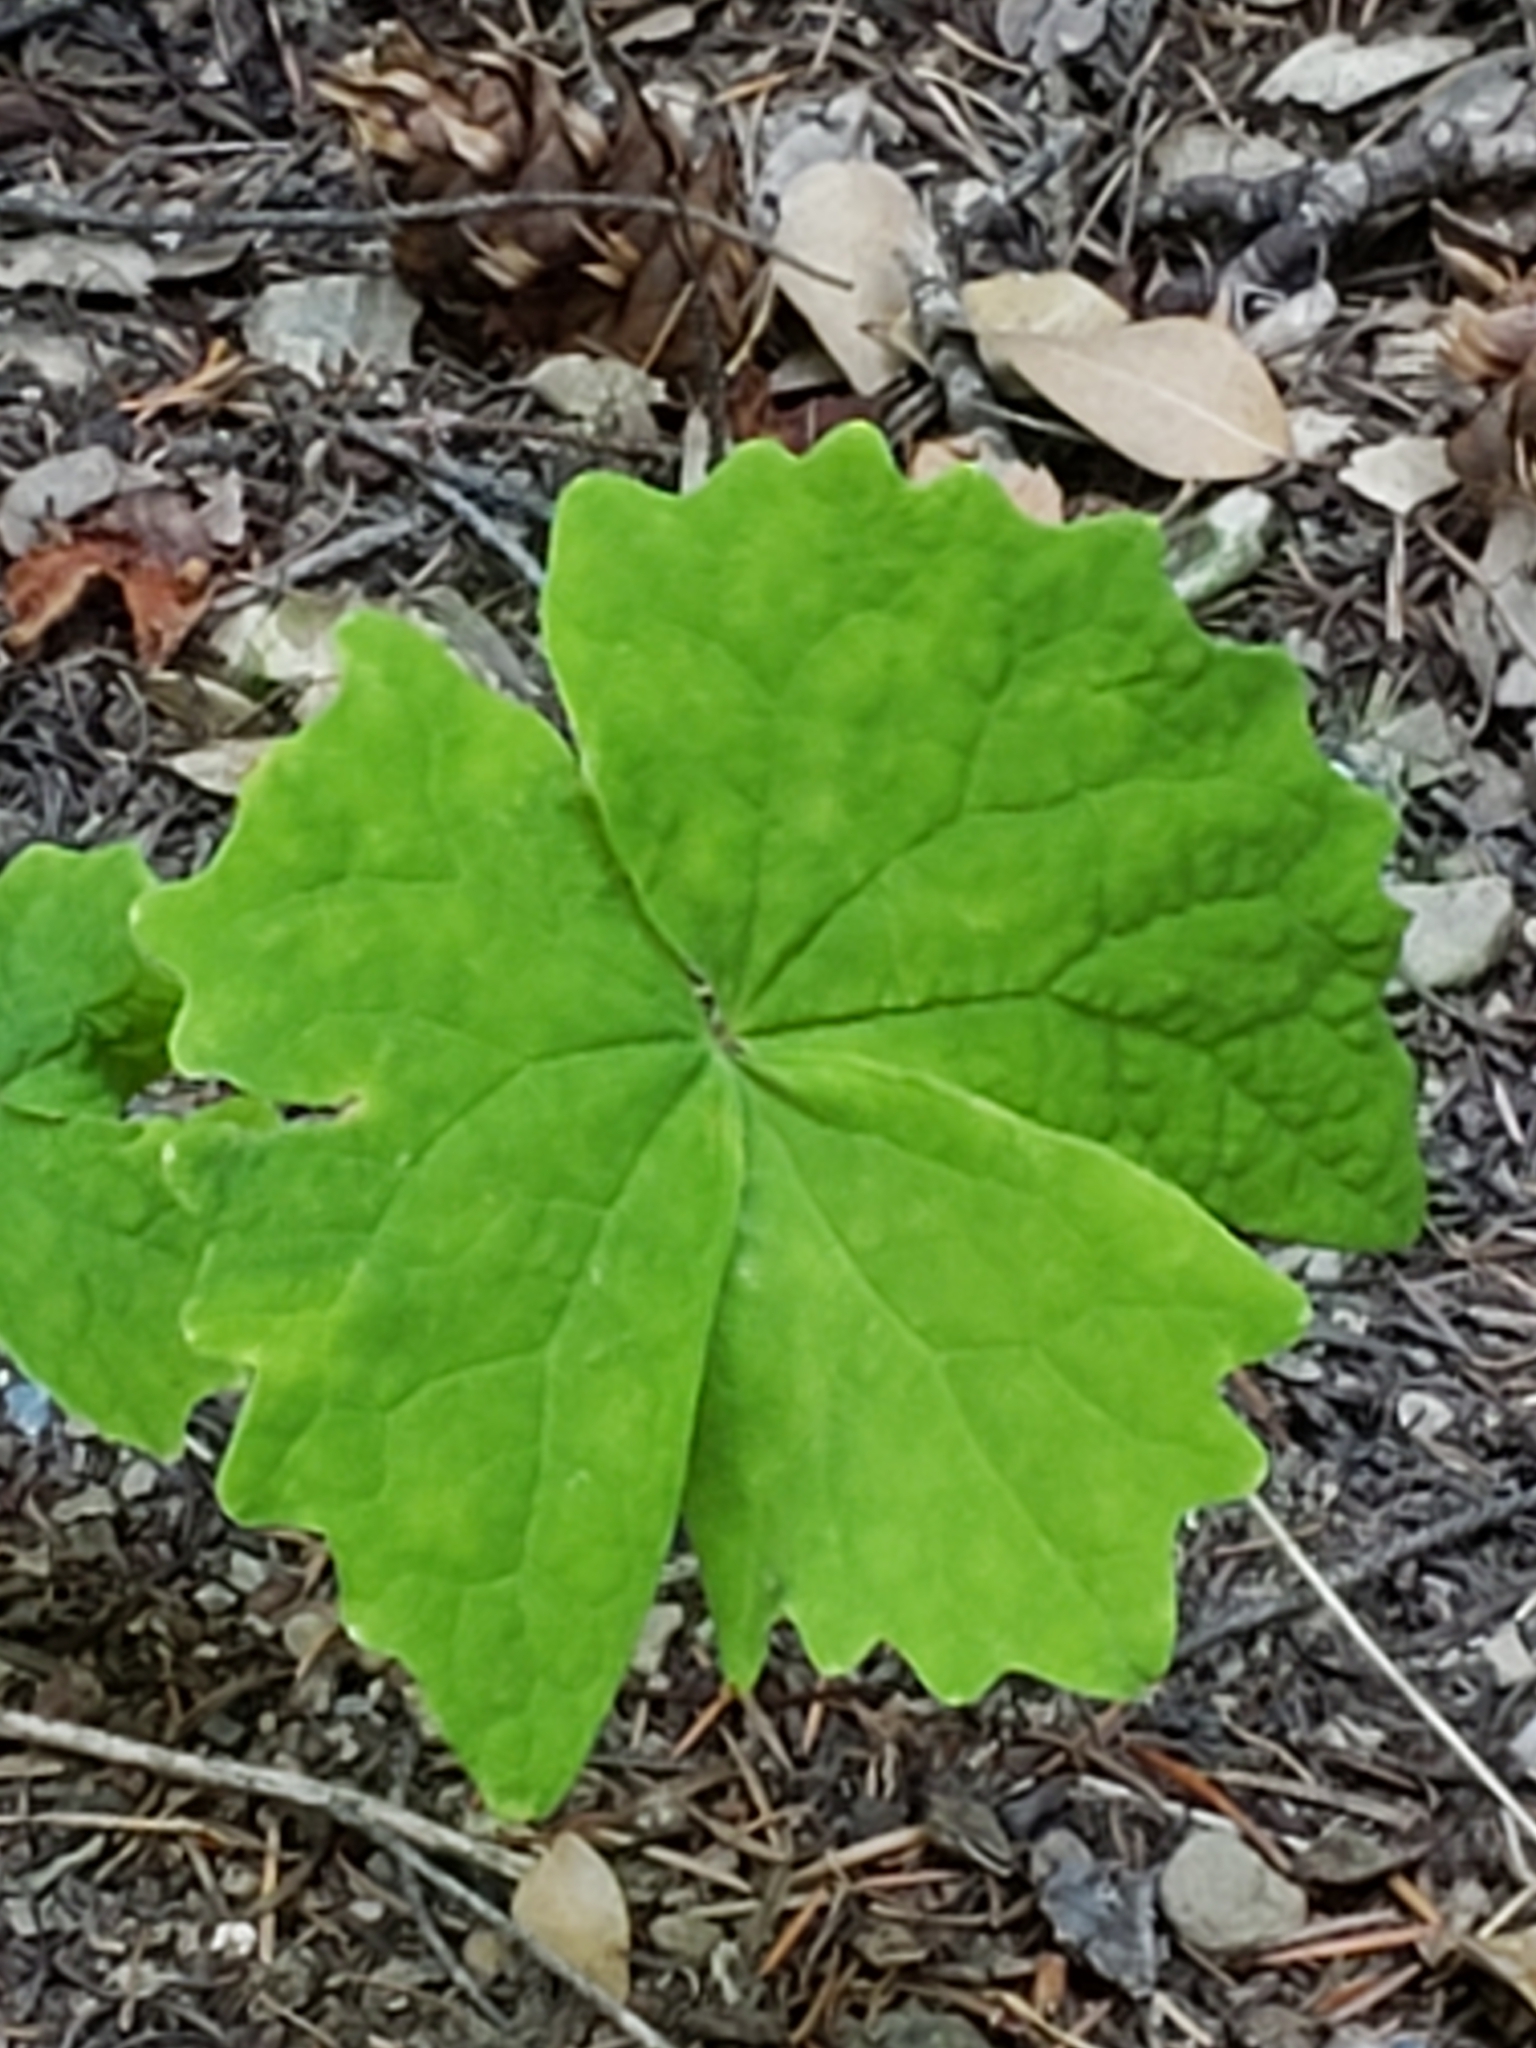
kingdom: Plantae
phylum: Tracheophyta
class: Magnoliopsida
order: Ranunculales
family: Berberidaceae
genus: Achlys
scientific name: Achlys californica
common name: California deer-foot
